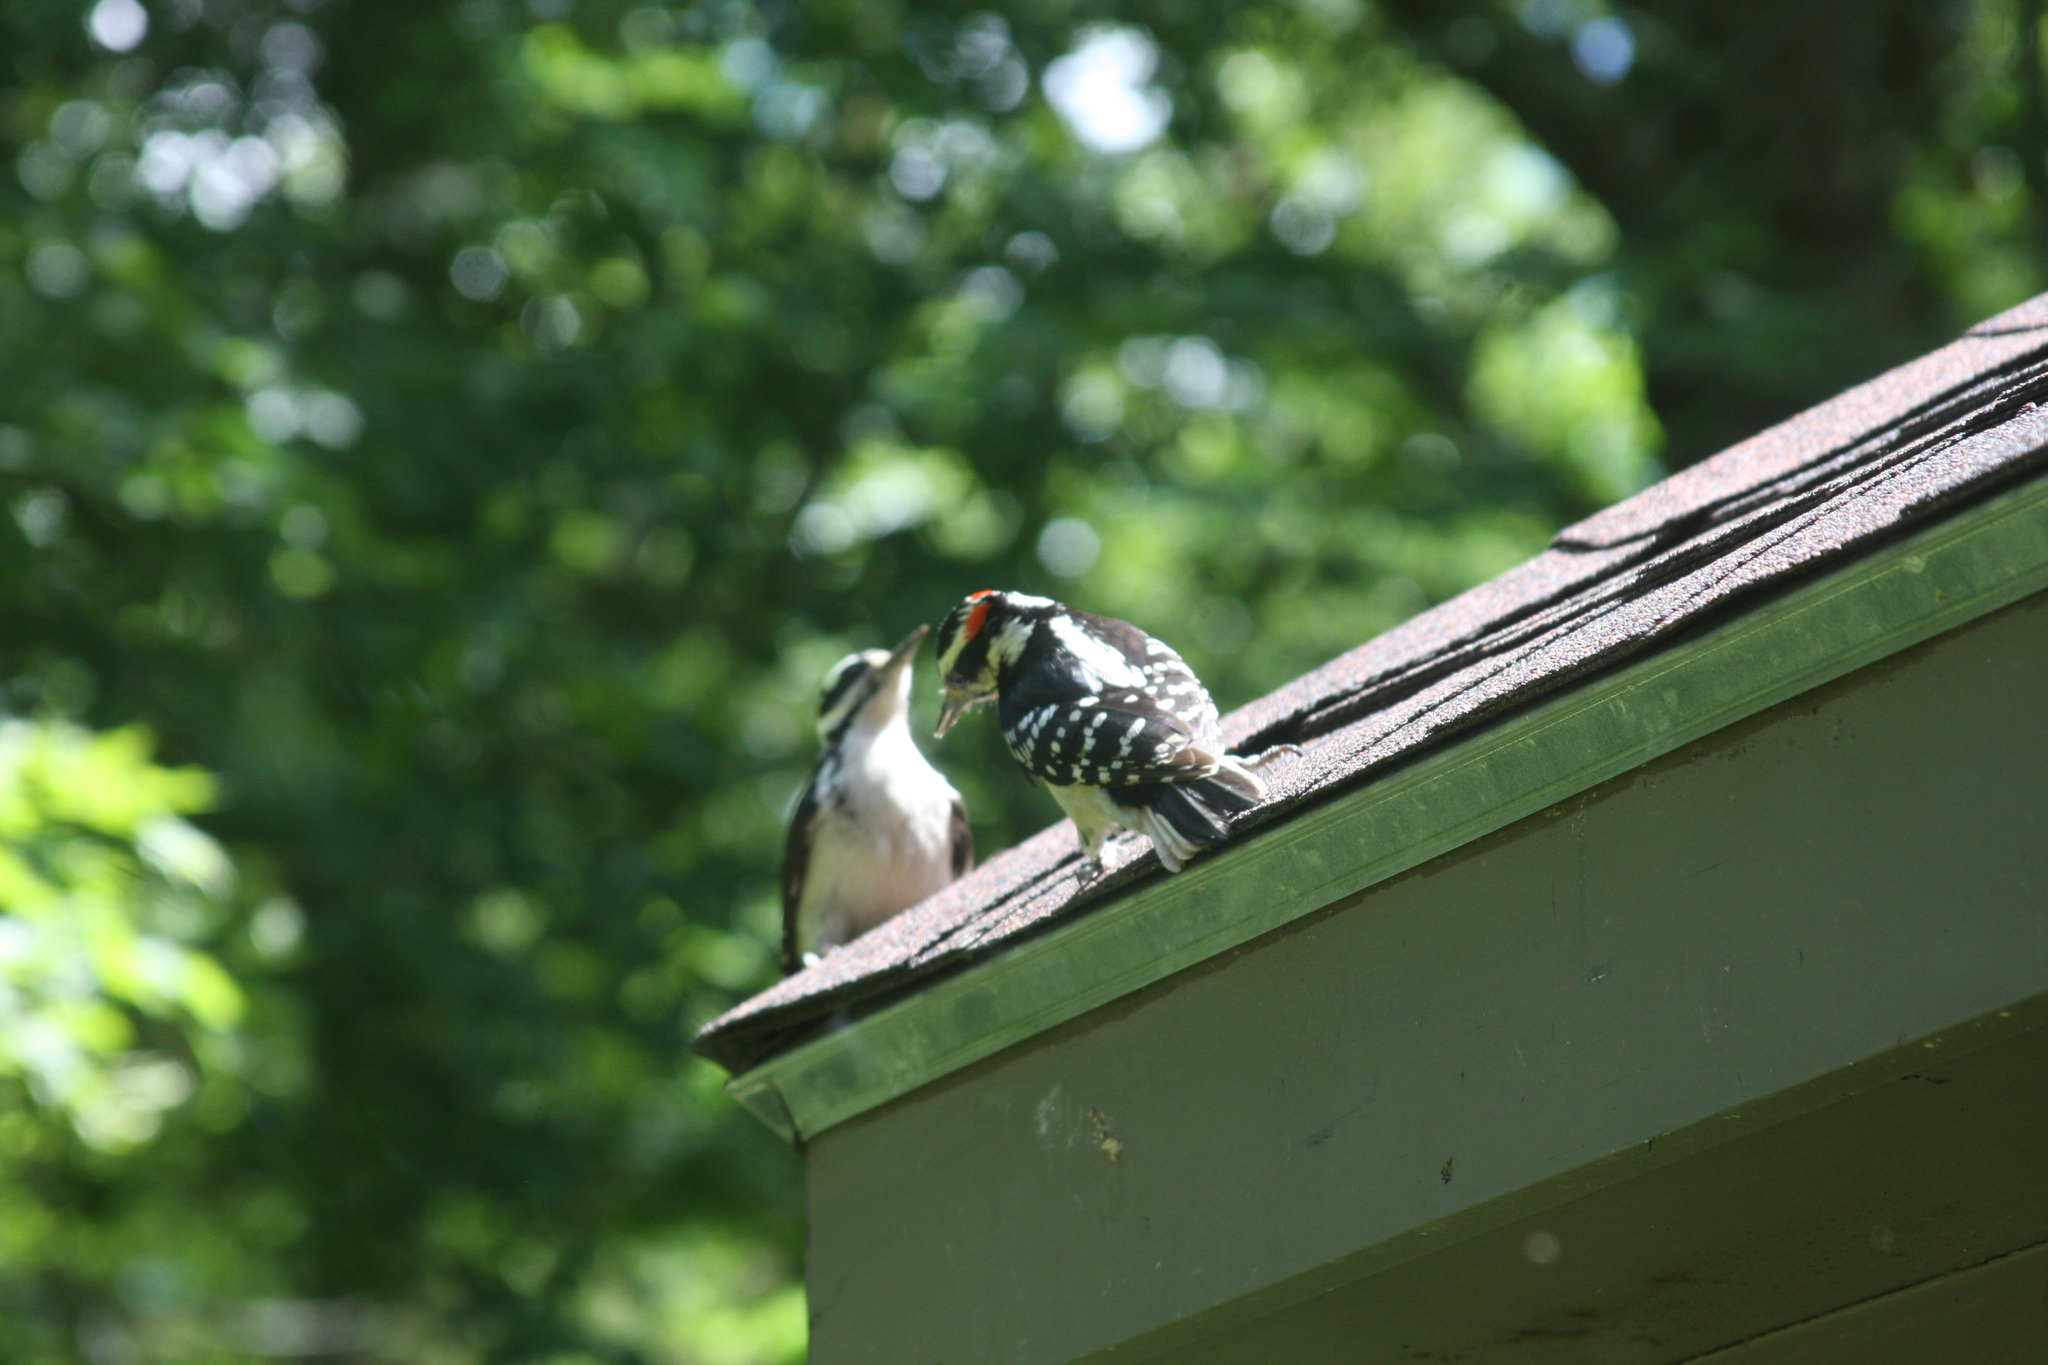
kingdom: Animalia
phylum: Chordata
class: Aves
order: Piciformes
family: Picidae
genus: Leuconotopicus
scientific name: Leuconotopicus villosus
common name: Hairy woodpecker
